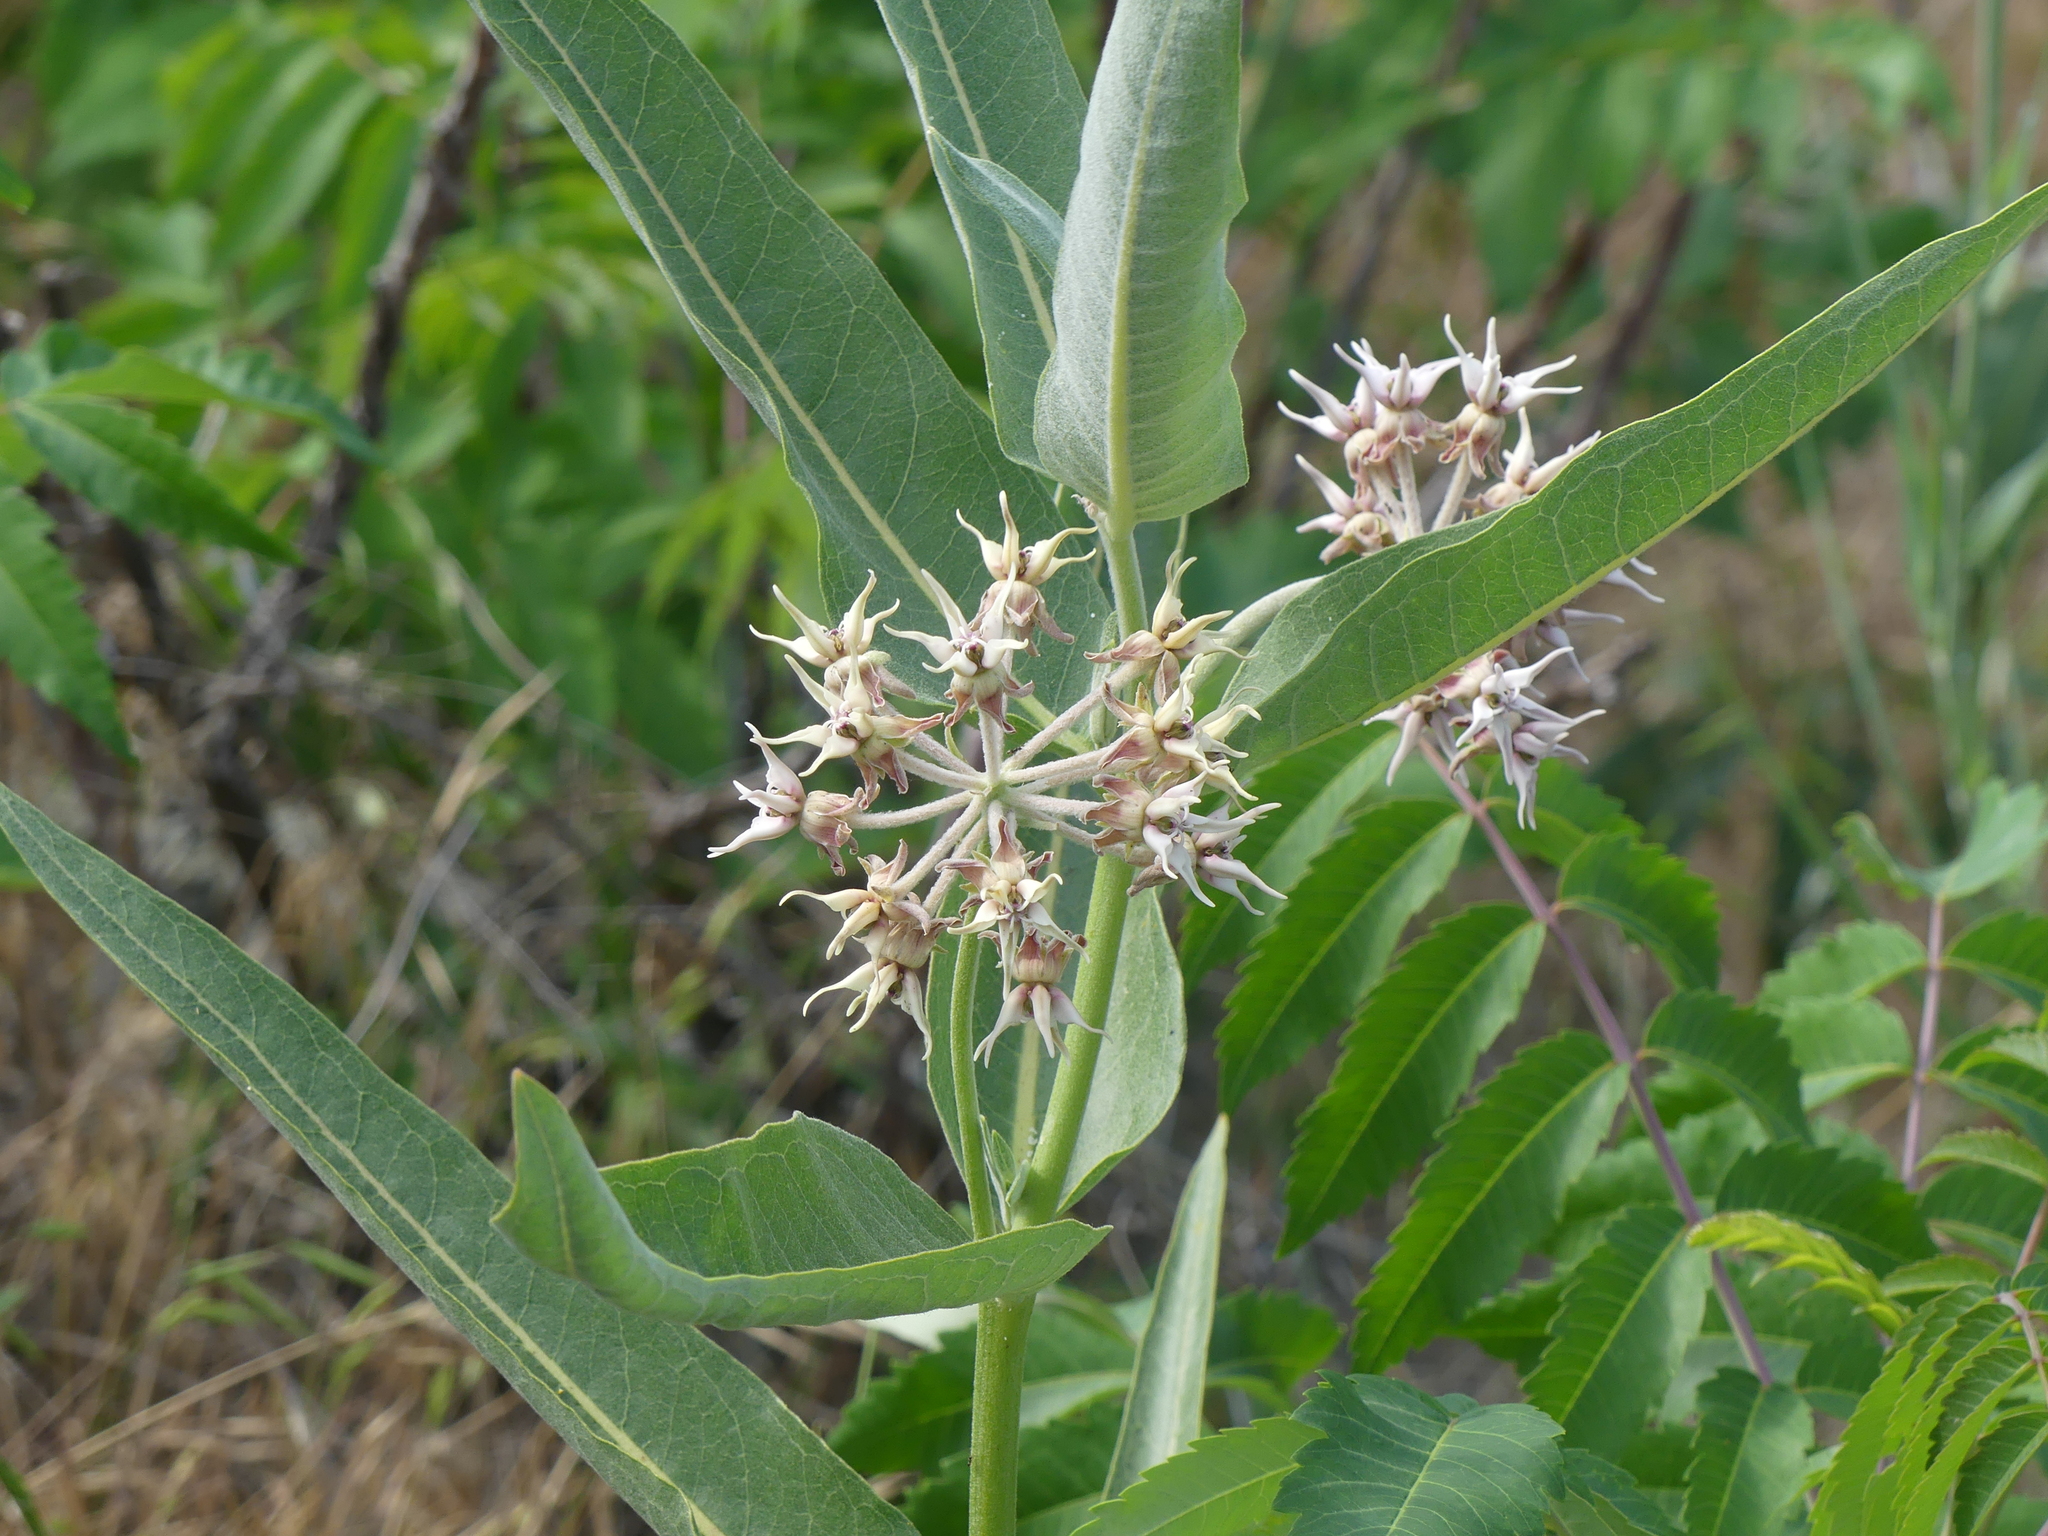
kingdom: Plantae
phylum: Tracheophyta
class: Magnoliopsida
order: Gentianales
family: Apocynaceae
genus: Asclepias
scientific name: Asclepias speciosa
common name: Showy milkweed
